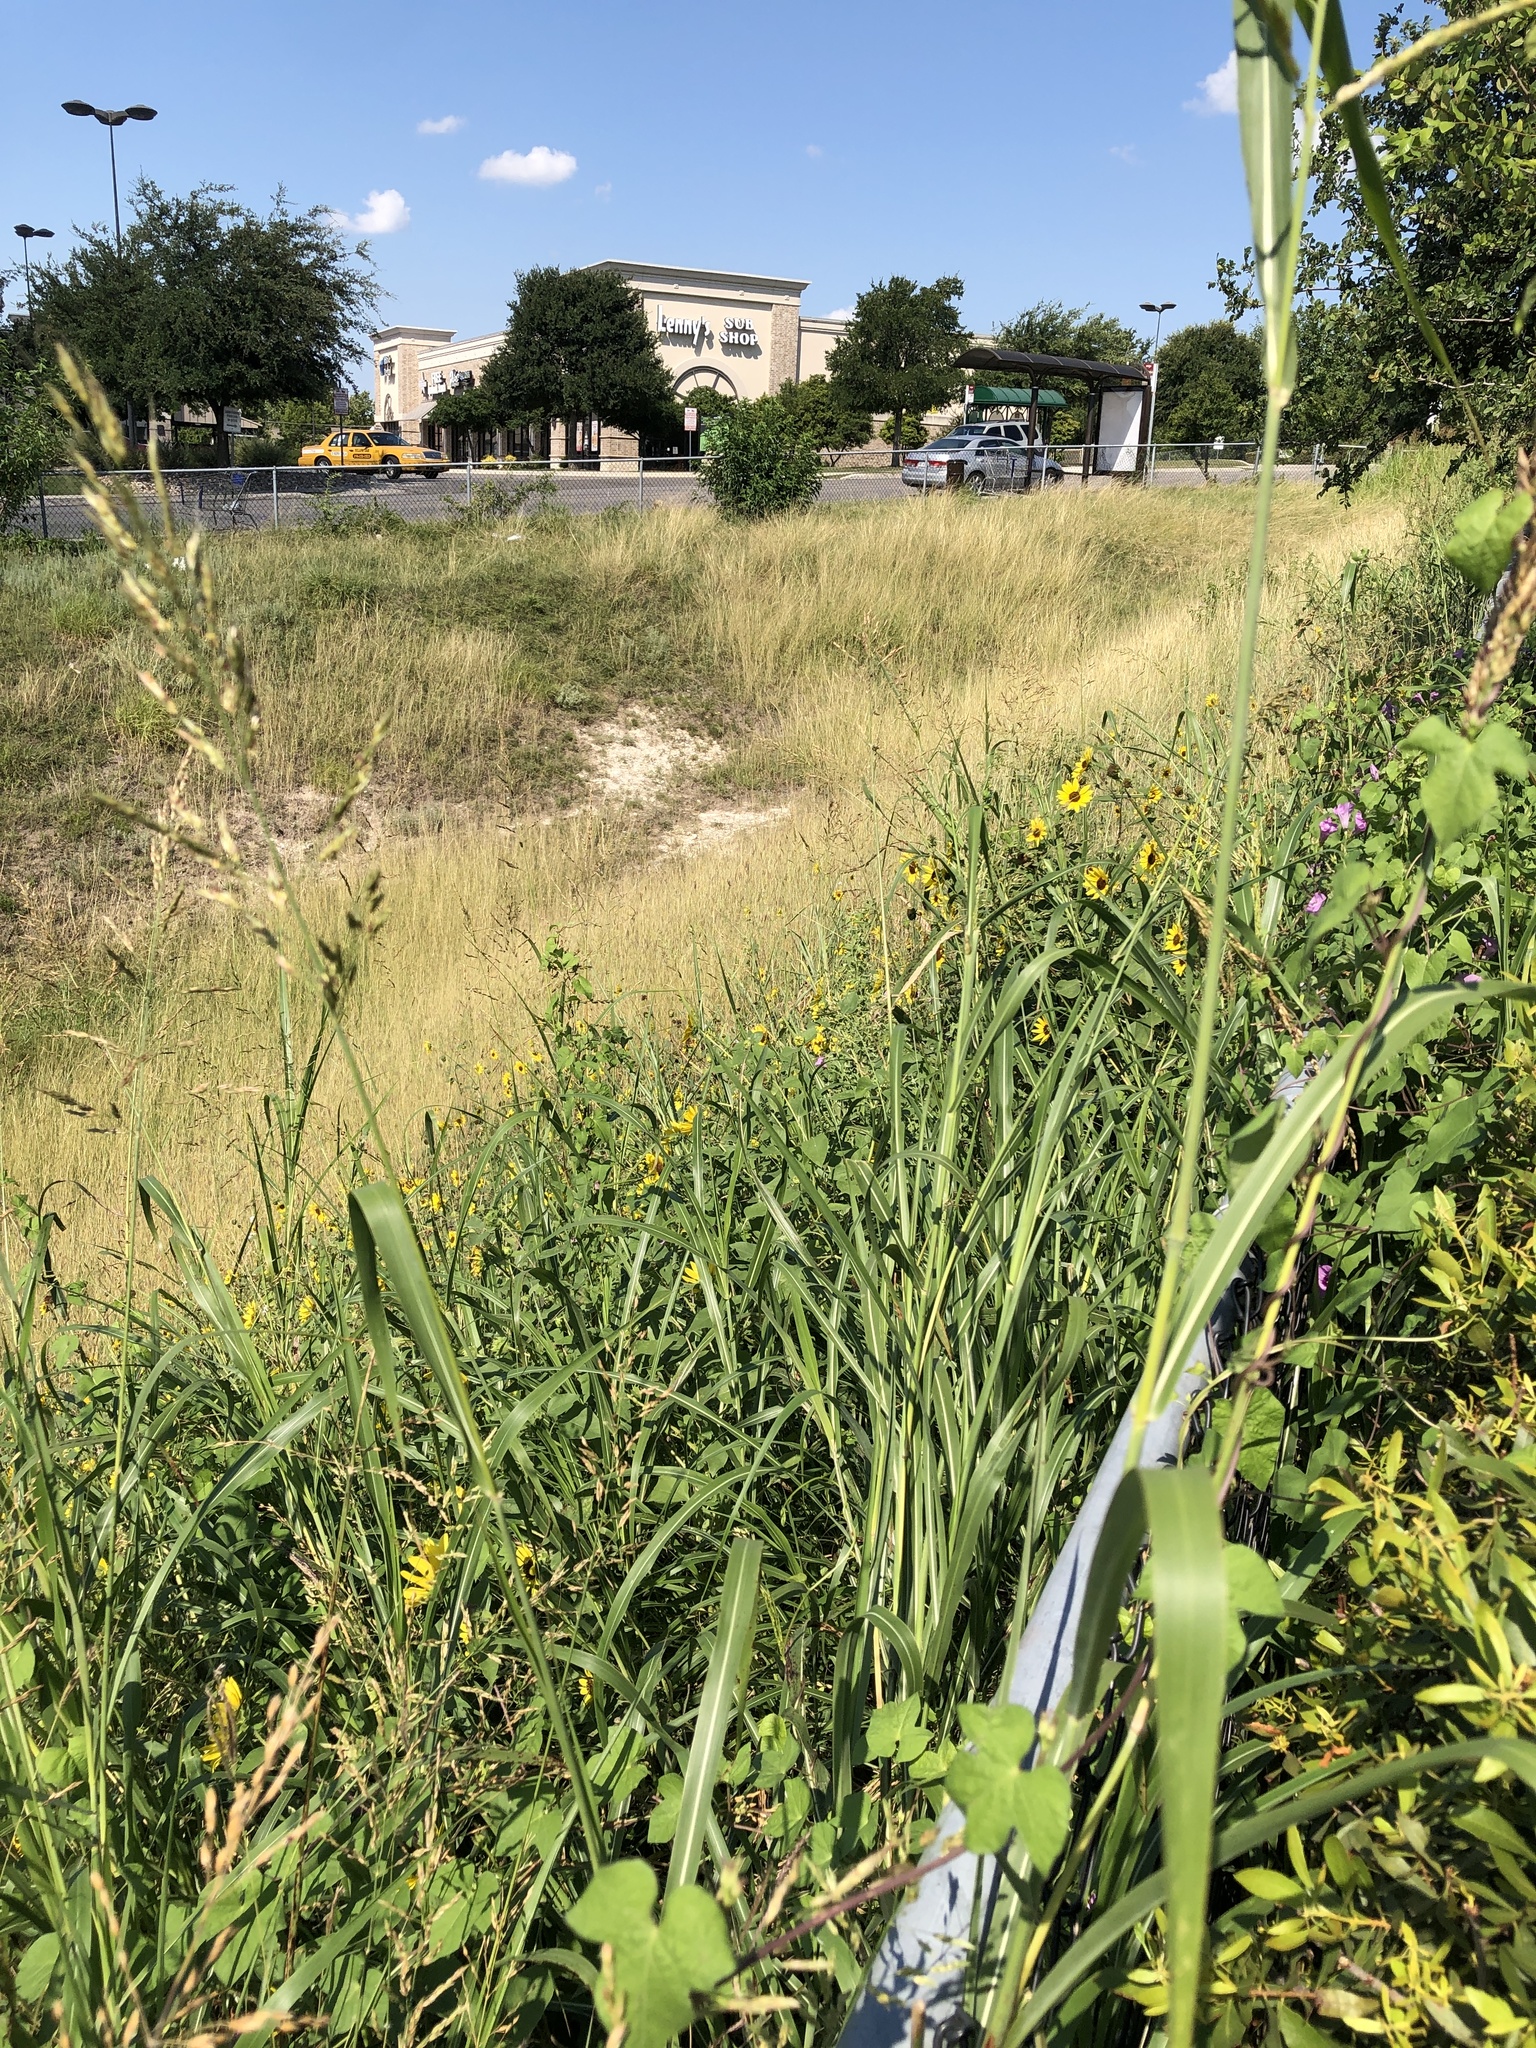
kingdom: Plantae
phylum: Tracheophyta
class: Liliopsida
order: Poales
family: Poaceae
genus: Sorghum
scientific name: Sorghum halepense
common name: Johnson-grass
